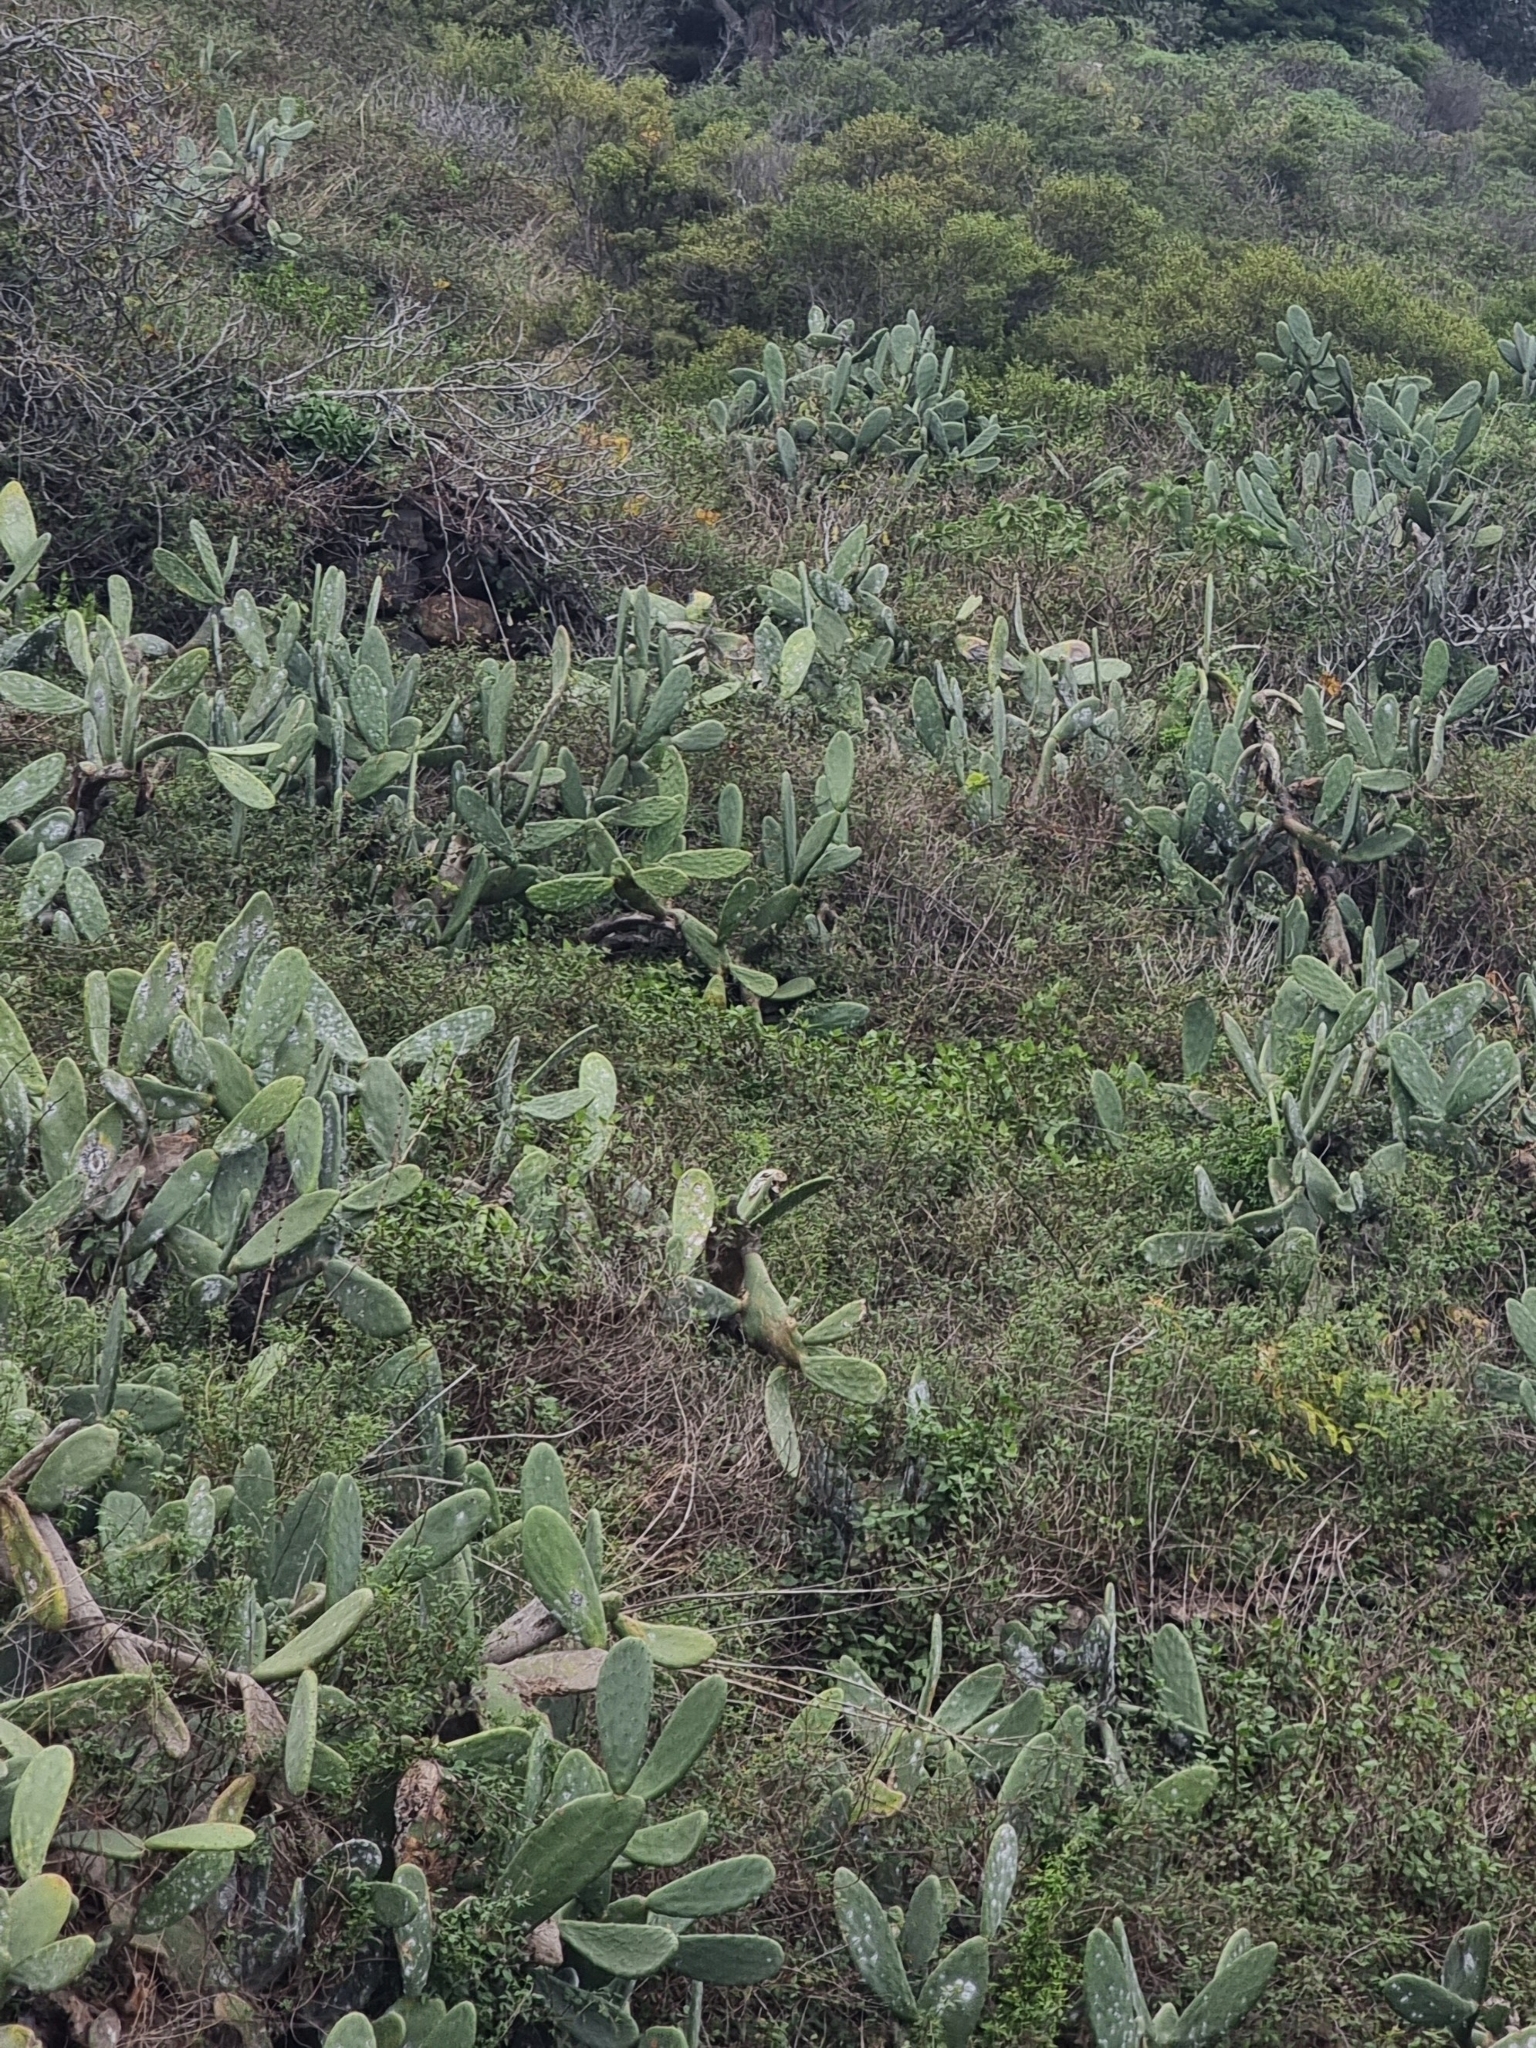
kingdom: Plantae
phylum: Tracheophyta
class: Magnoliopsida
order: Caryophyllales
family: Cactaceae
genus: Opuntia
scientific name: Opuntia ficus-indica
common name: Barbary fig
